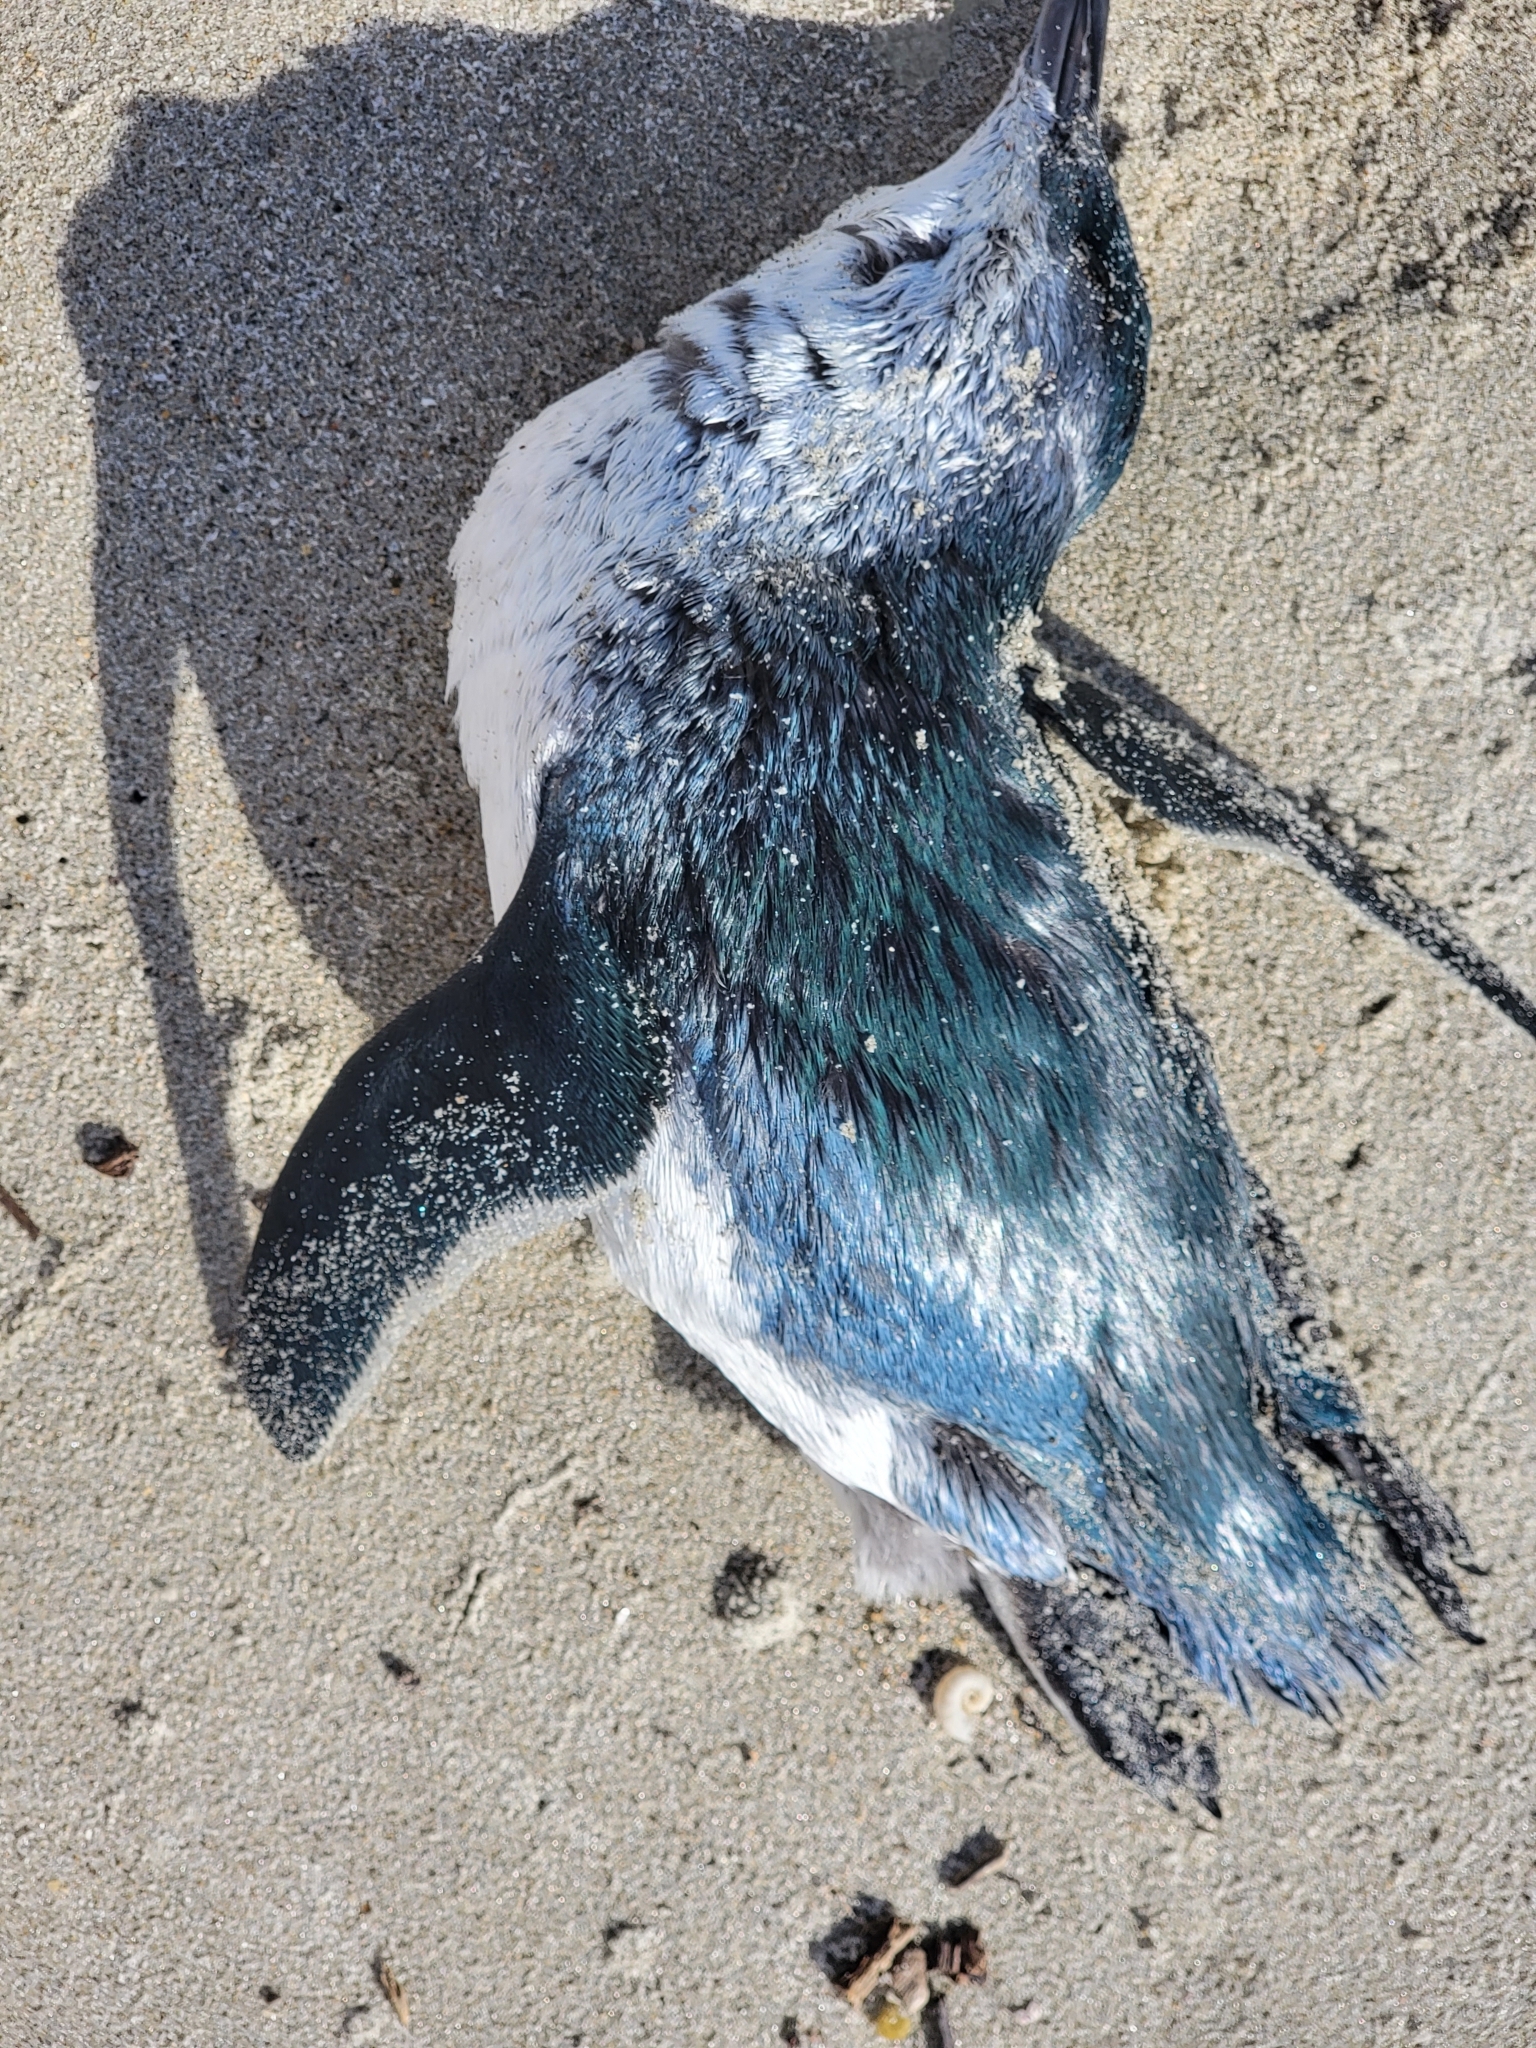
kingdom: Animalia
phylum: Chordata
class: Aves
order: Sphenisciformes
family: Spheniscidae
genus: Eudyptula
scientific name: Eudyptula minor
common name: Little penguin
